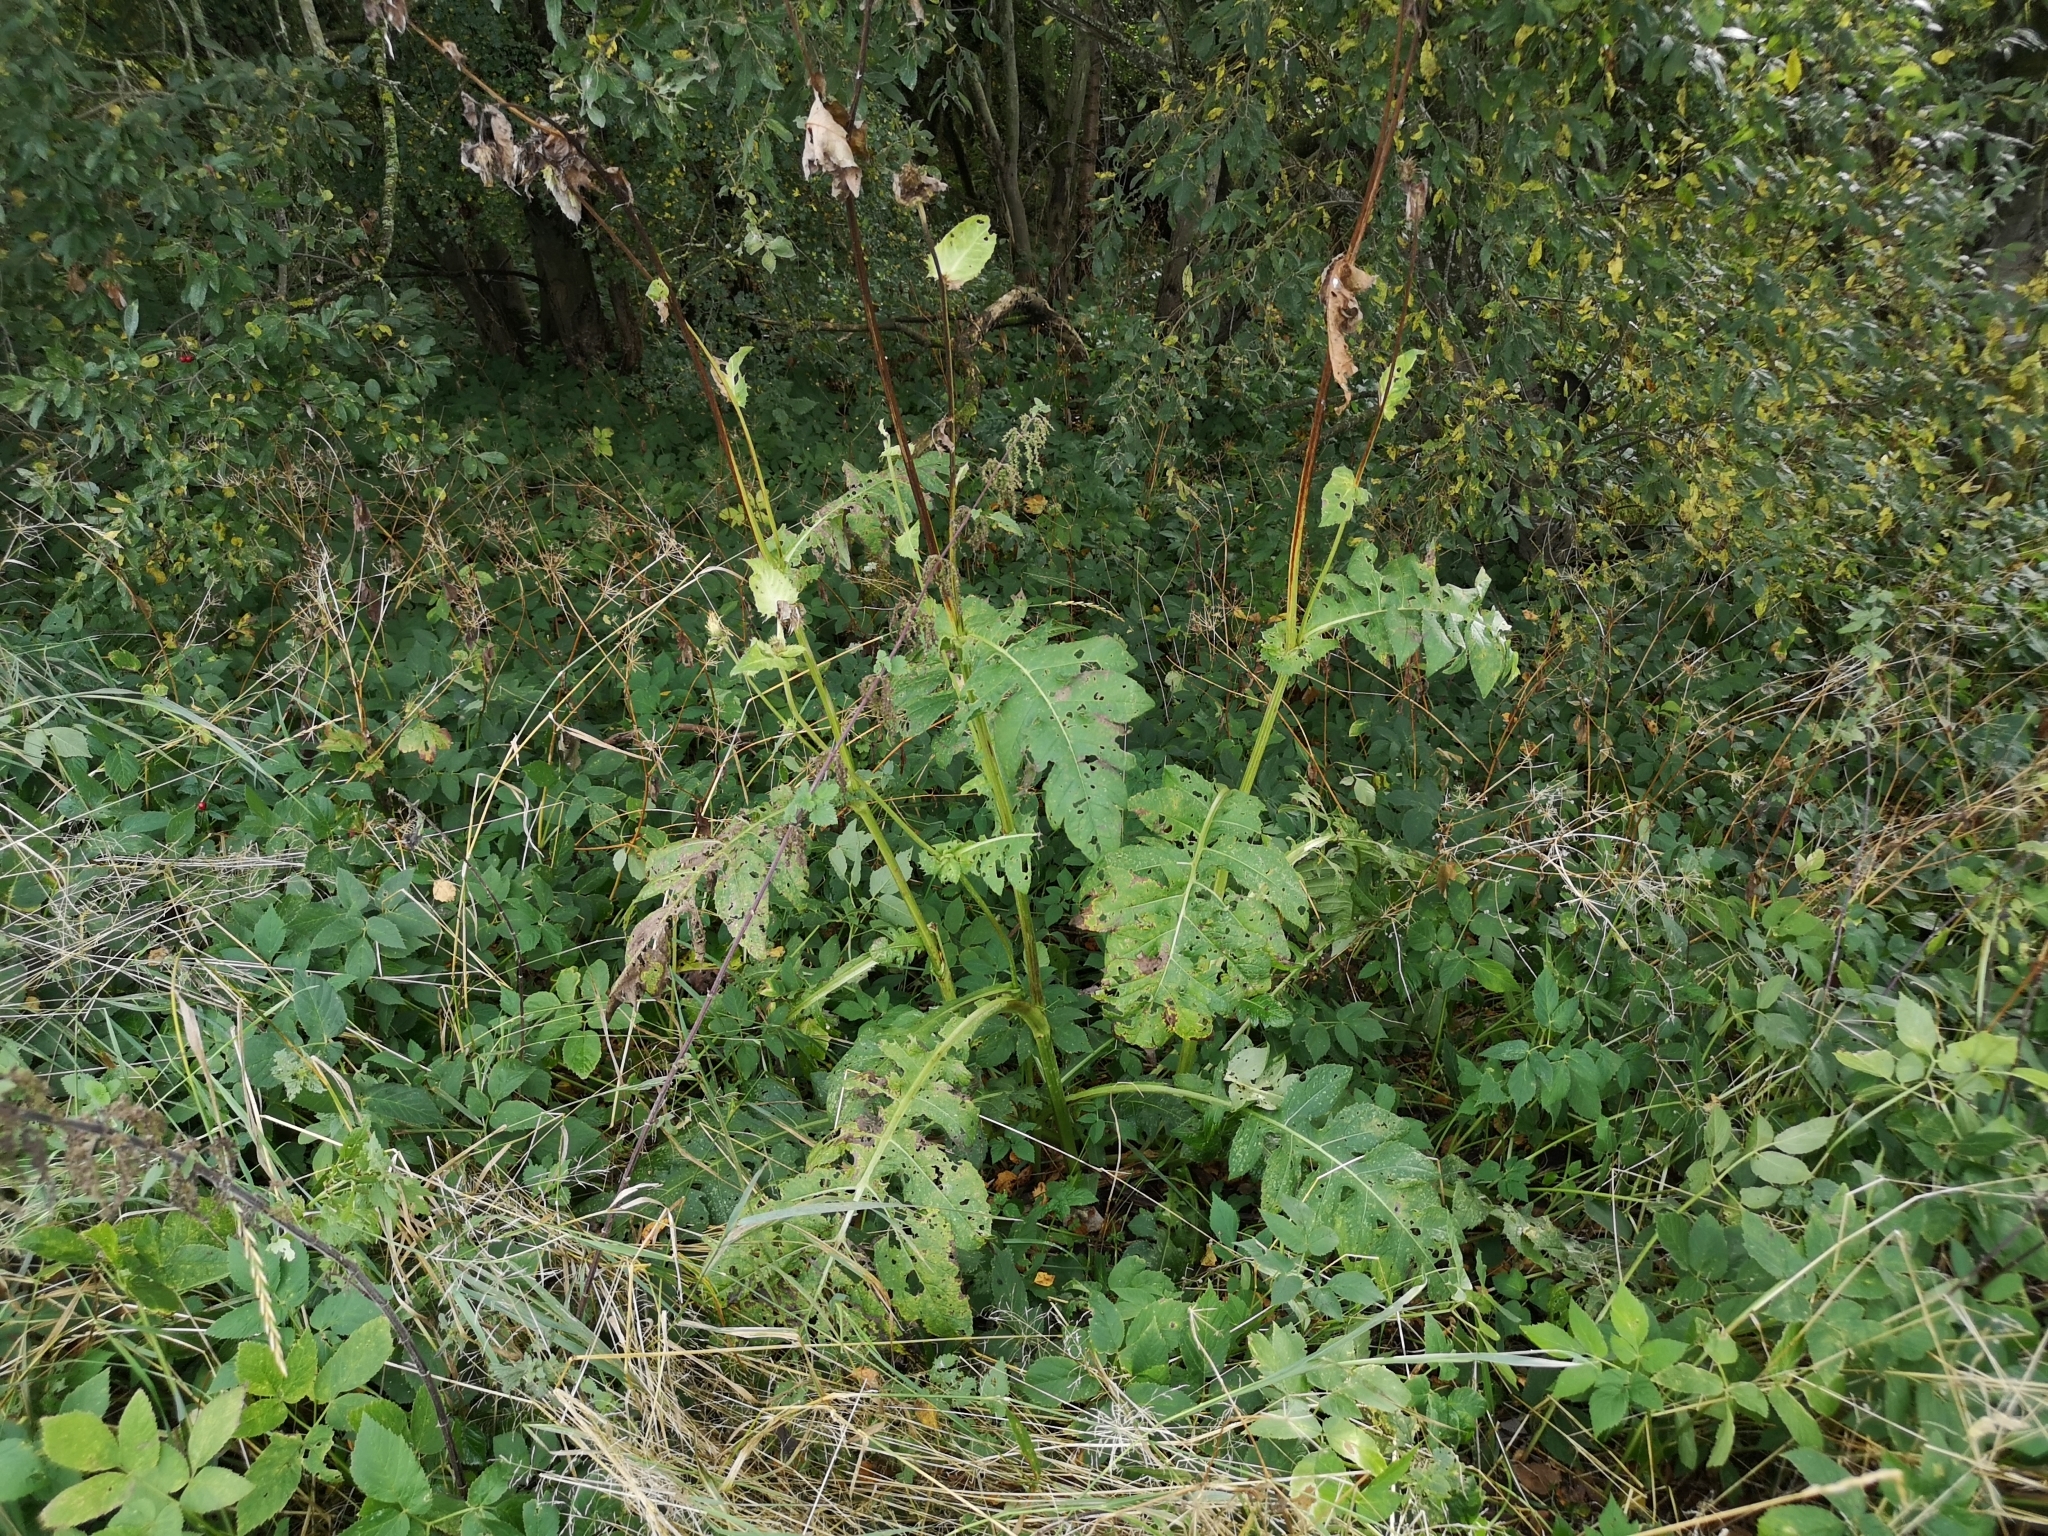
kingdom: Plantae
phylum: Tracheophyta
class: Magnoliopsida
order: Asterales
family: Asteraceae
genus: Cirsium
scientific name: Cirsium oleraceum
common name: Cabbage thistle
